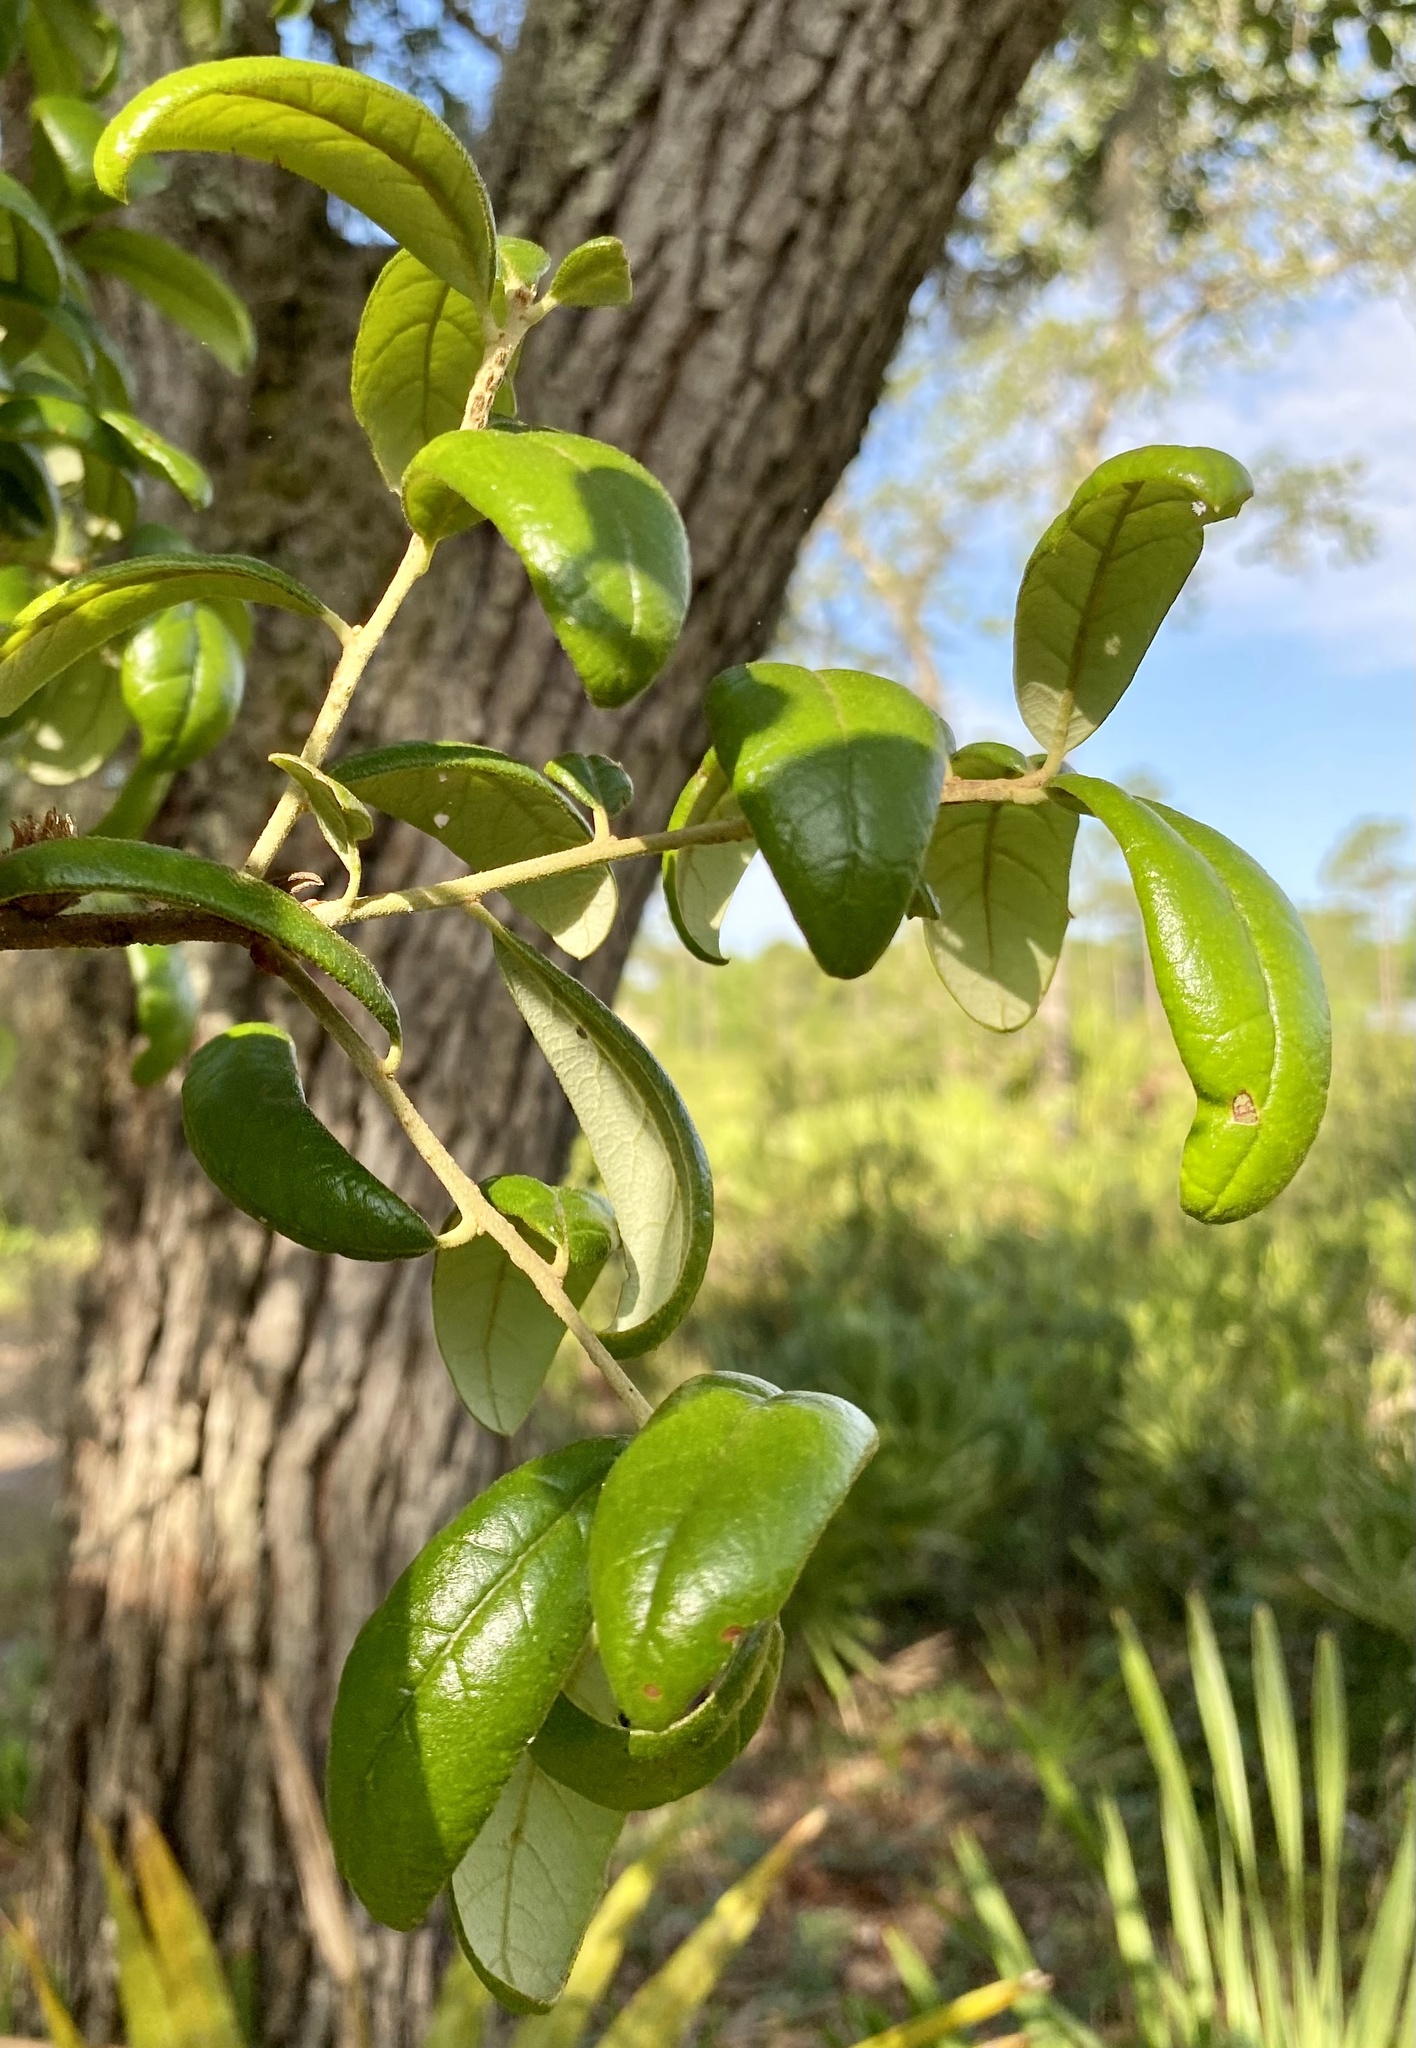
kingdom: Plantae
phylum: Tracheophyta
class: Magnoliopsida
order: Fagales
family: Fagaceae
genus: Quercus
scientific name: Quercus geminata
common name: Sand live oak
